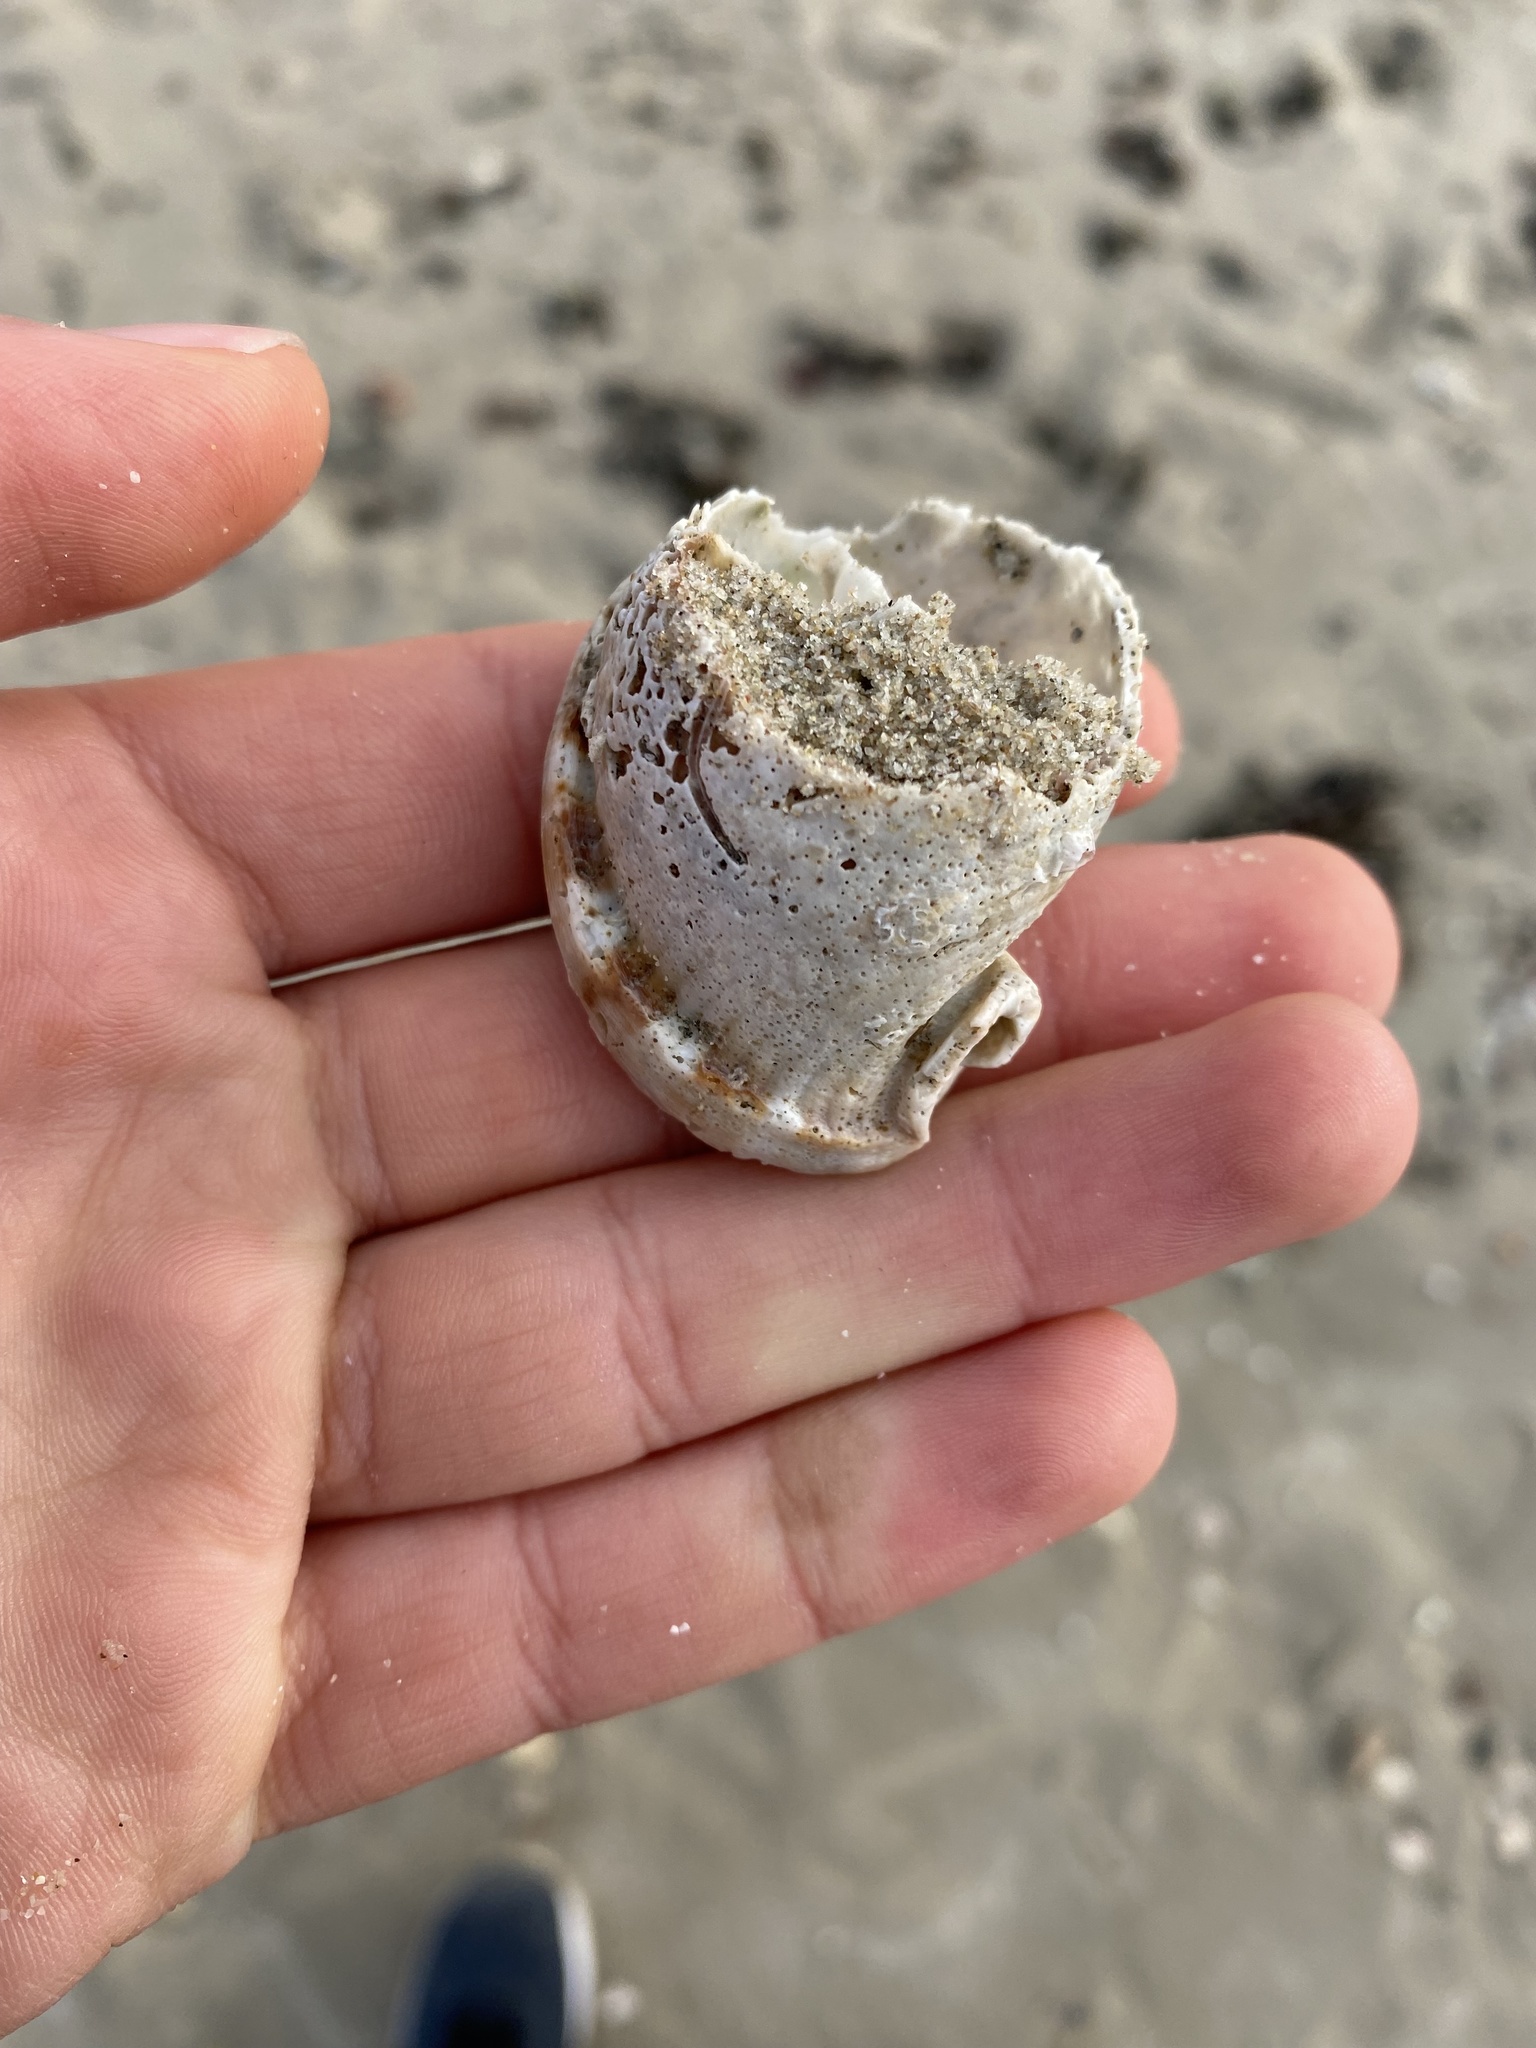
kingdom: Animalia
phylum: Mollusca
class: Gastropoda
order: Littorinimorpha
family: Cassidae
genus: Semicassis
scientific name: Semicassis centiquadrata
